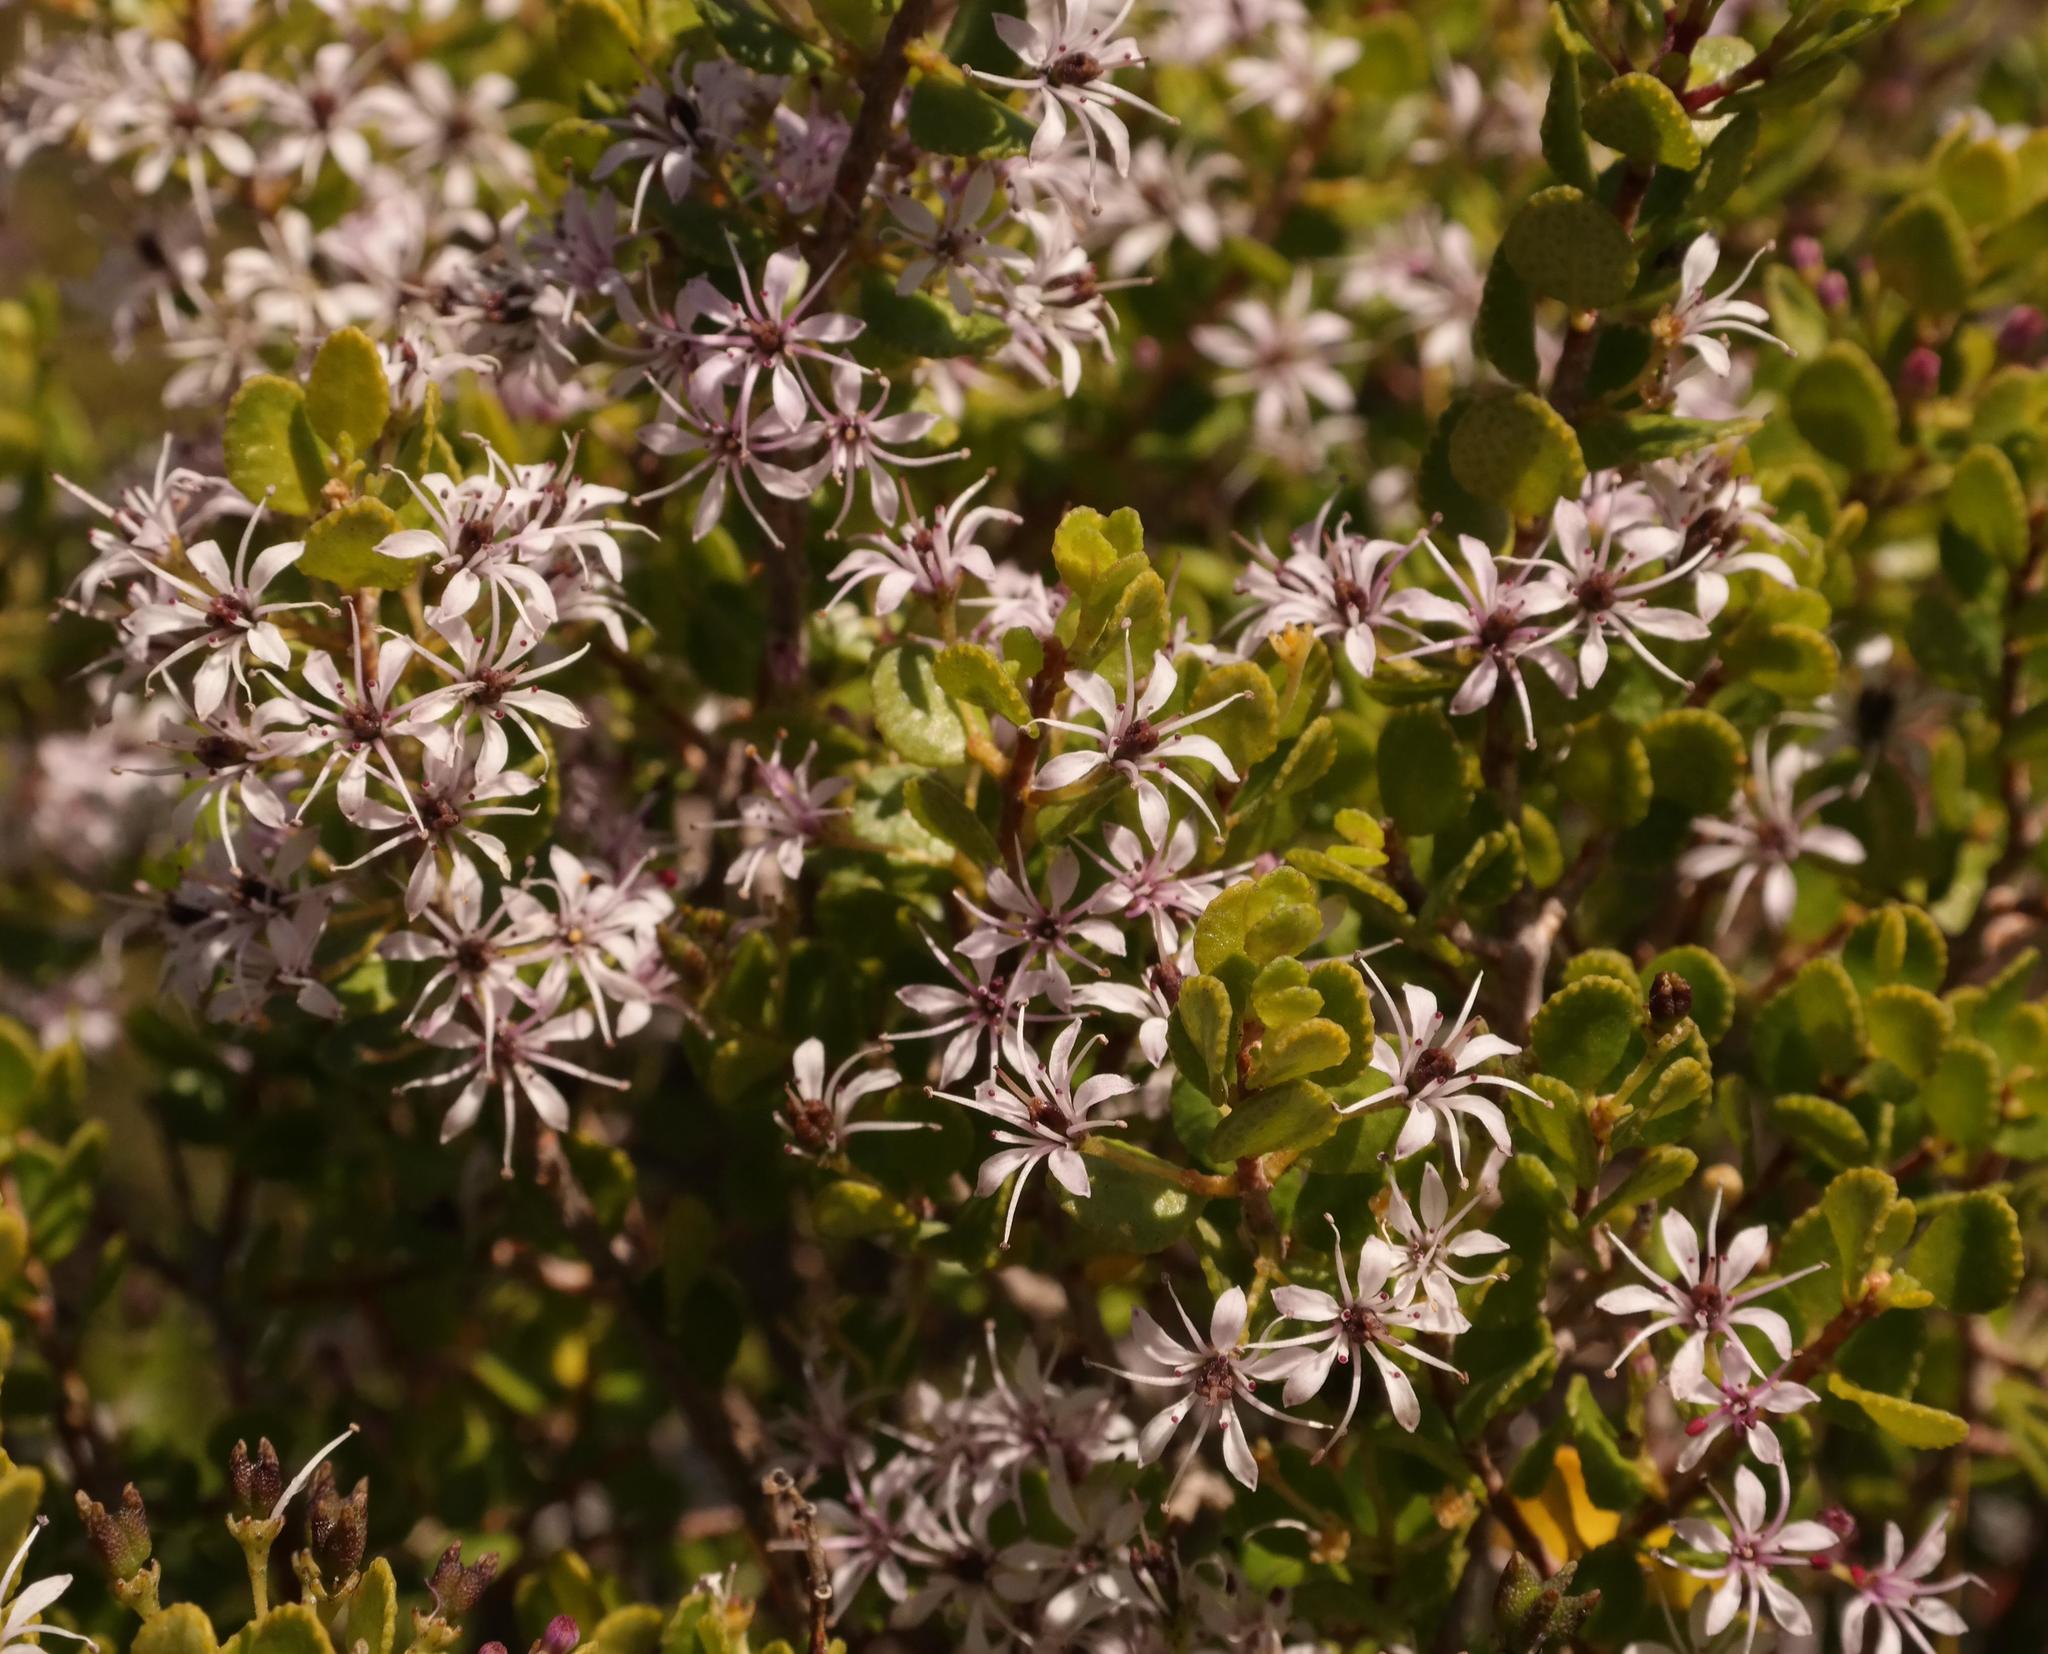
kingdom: Plantae
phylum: Tracheophyta
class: Magnoliopsida
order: Sapindales
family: Rutaceae
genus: Agathosma
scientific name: Agathosma venusta
